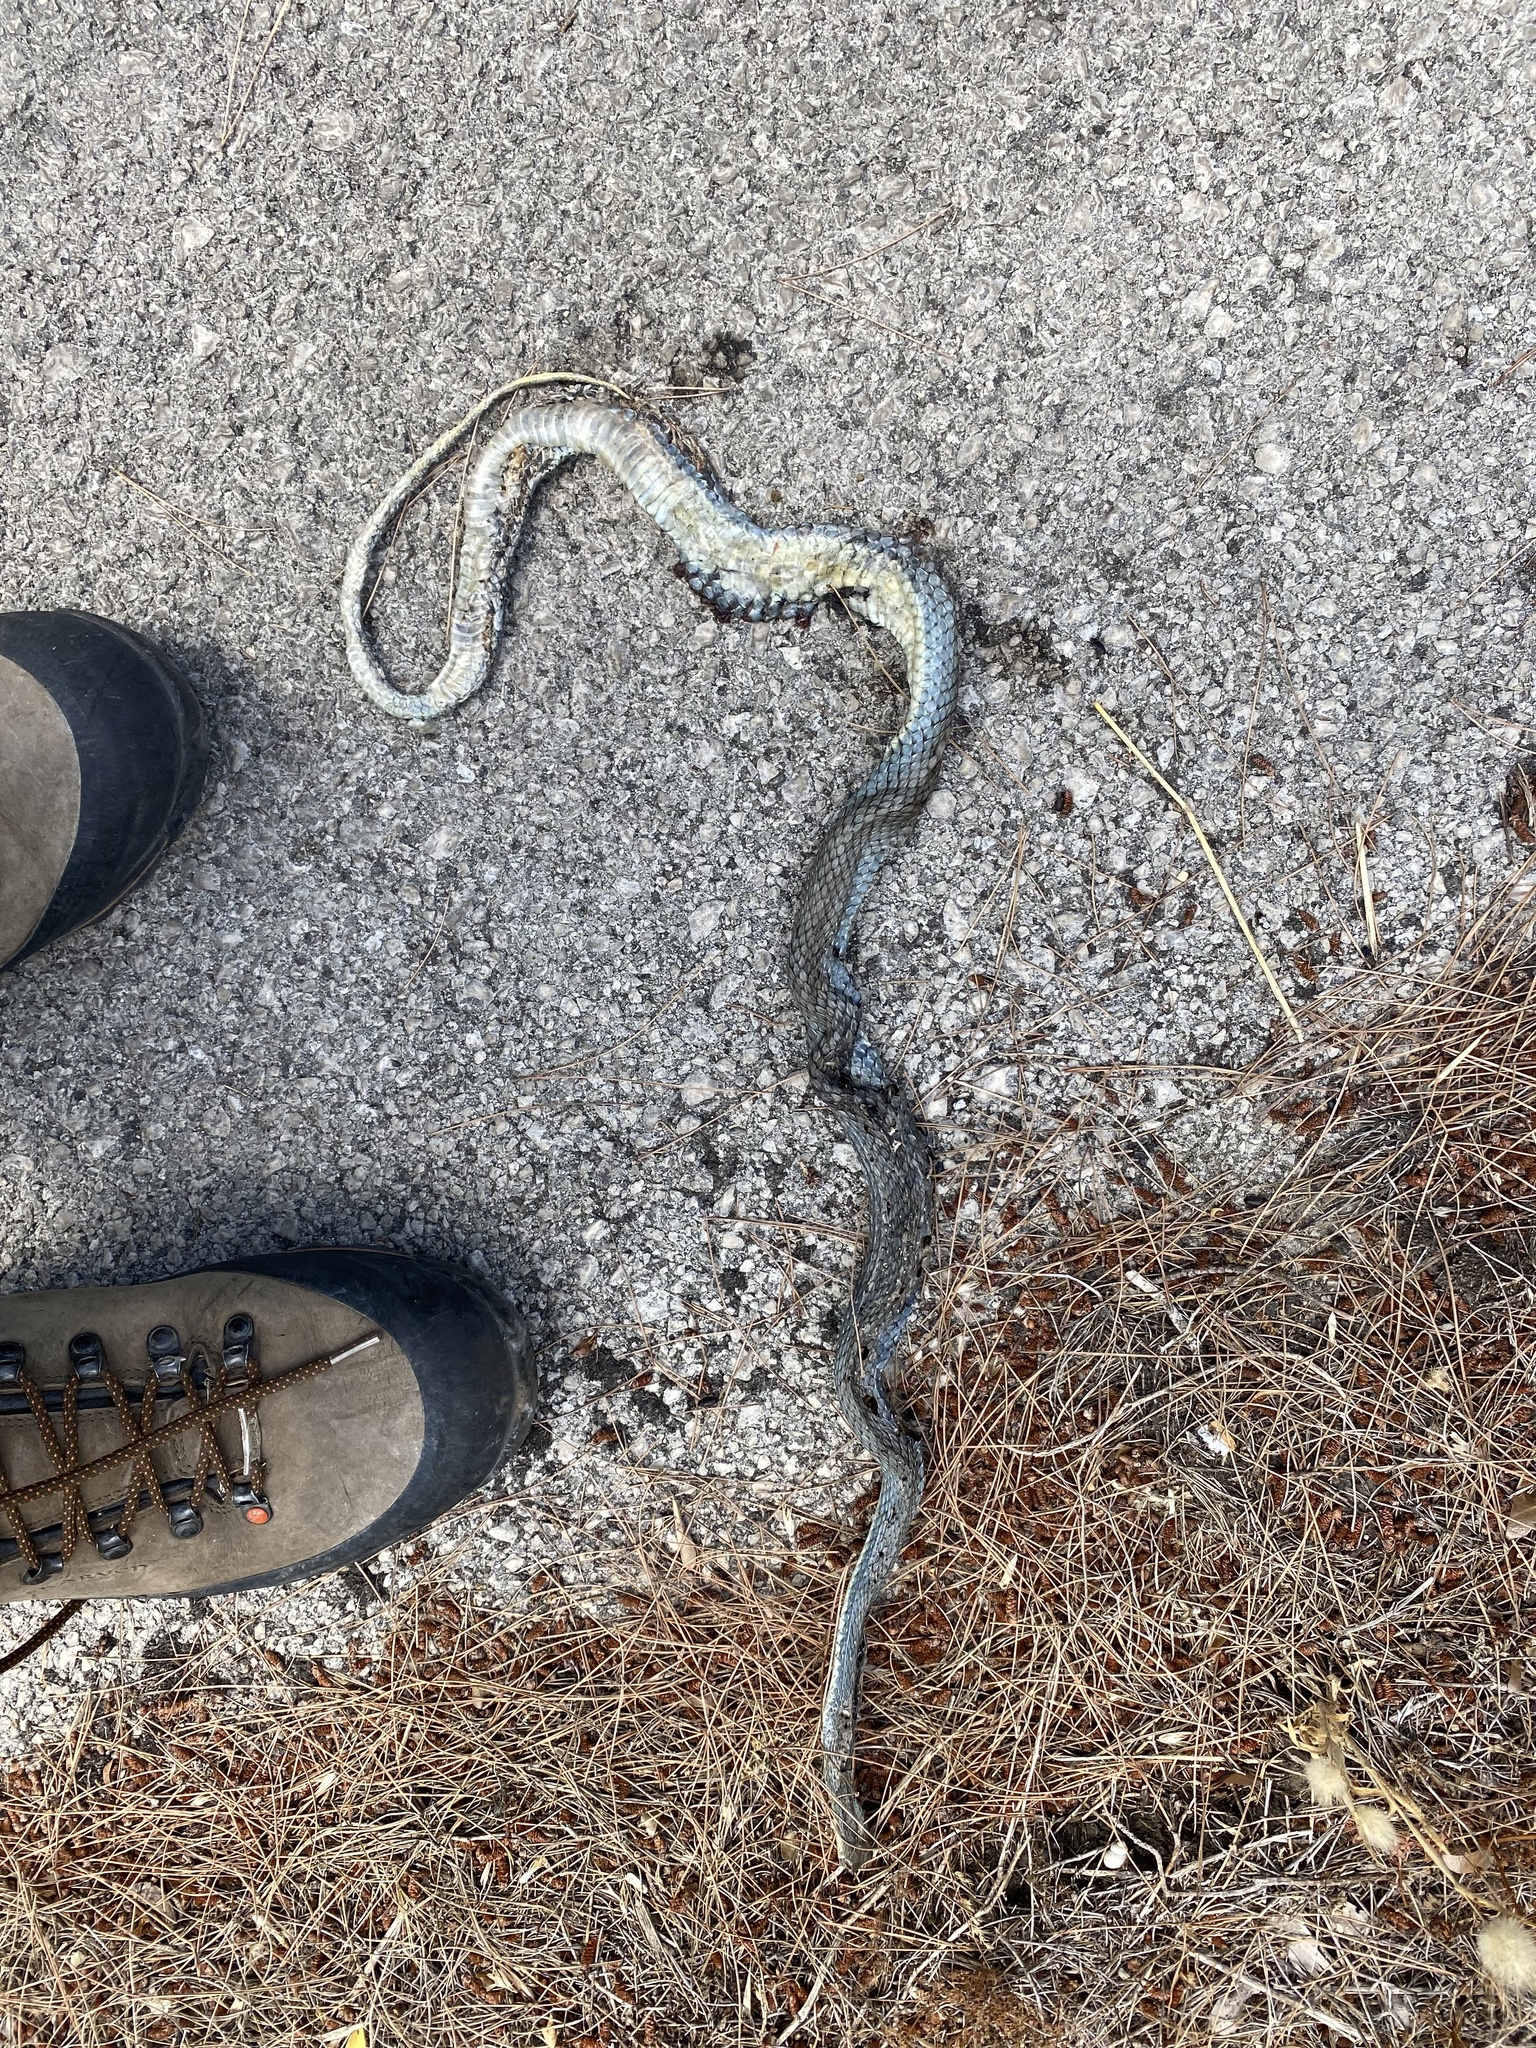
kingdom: Animalia
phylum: Chordata
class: Squamata
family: Psammophiidae
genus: Malpolon
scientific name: Malpolon insignitus
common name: Eastern montpellier snake
